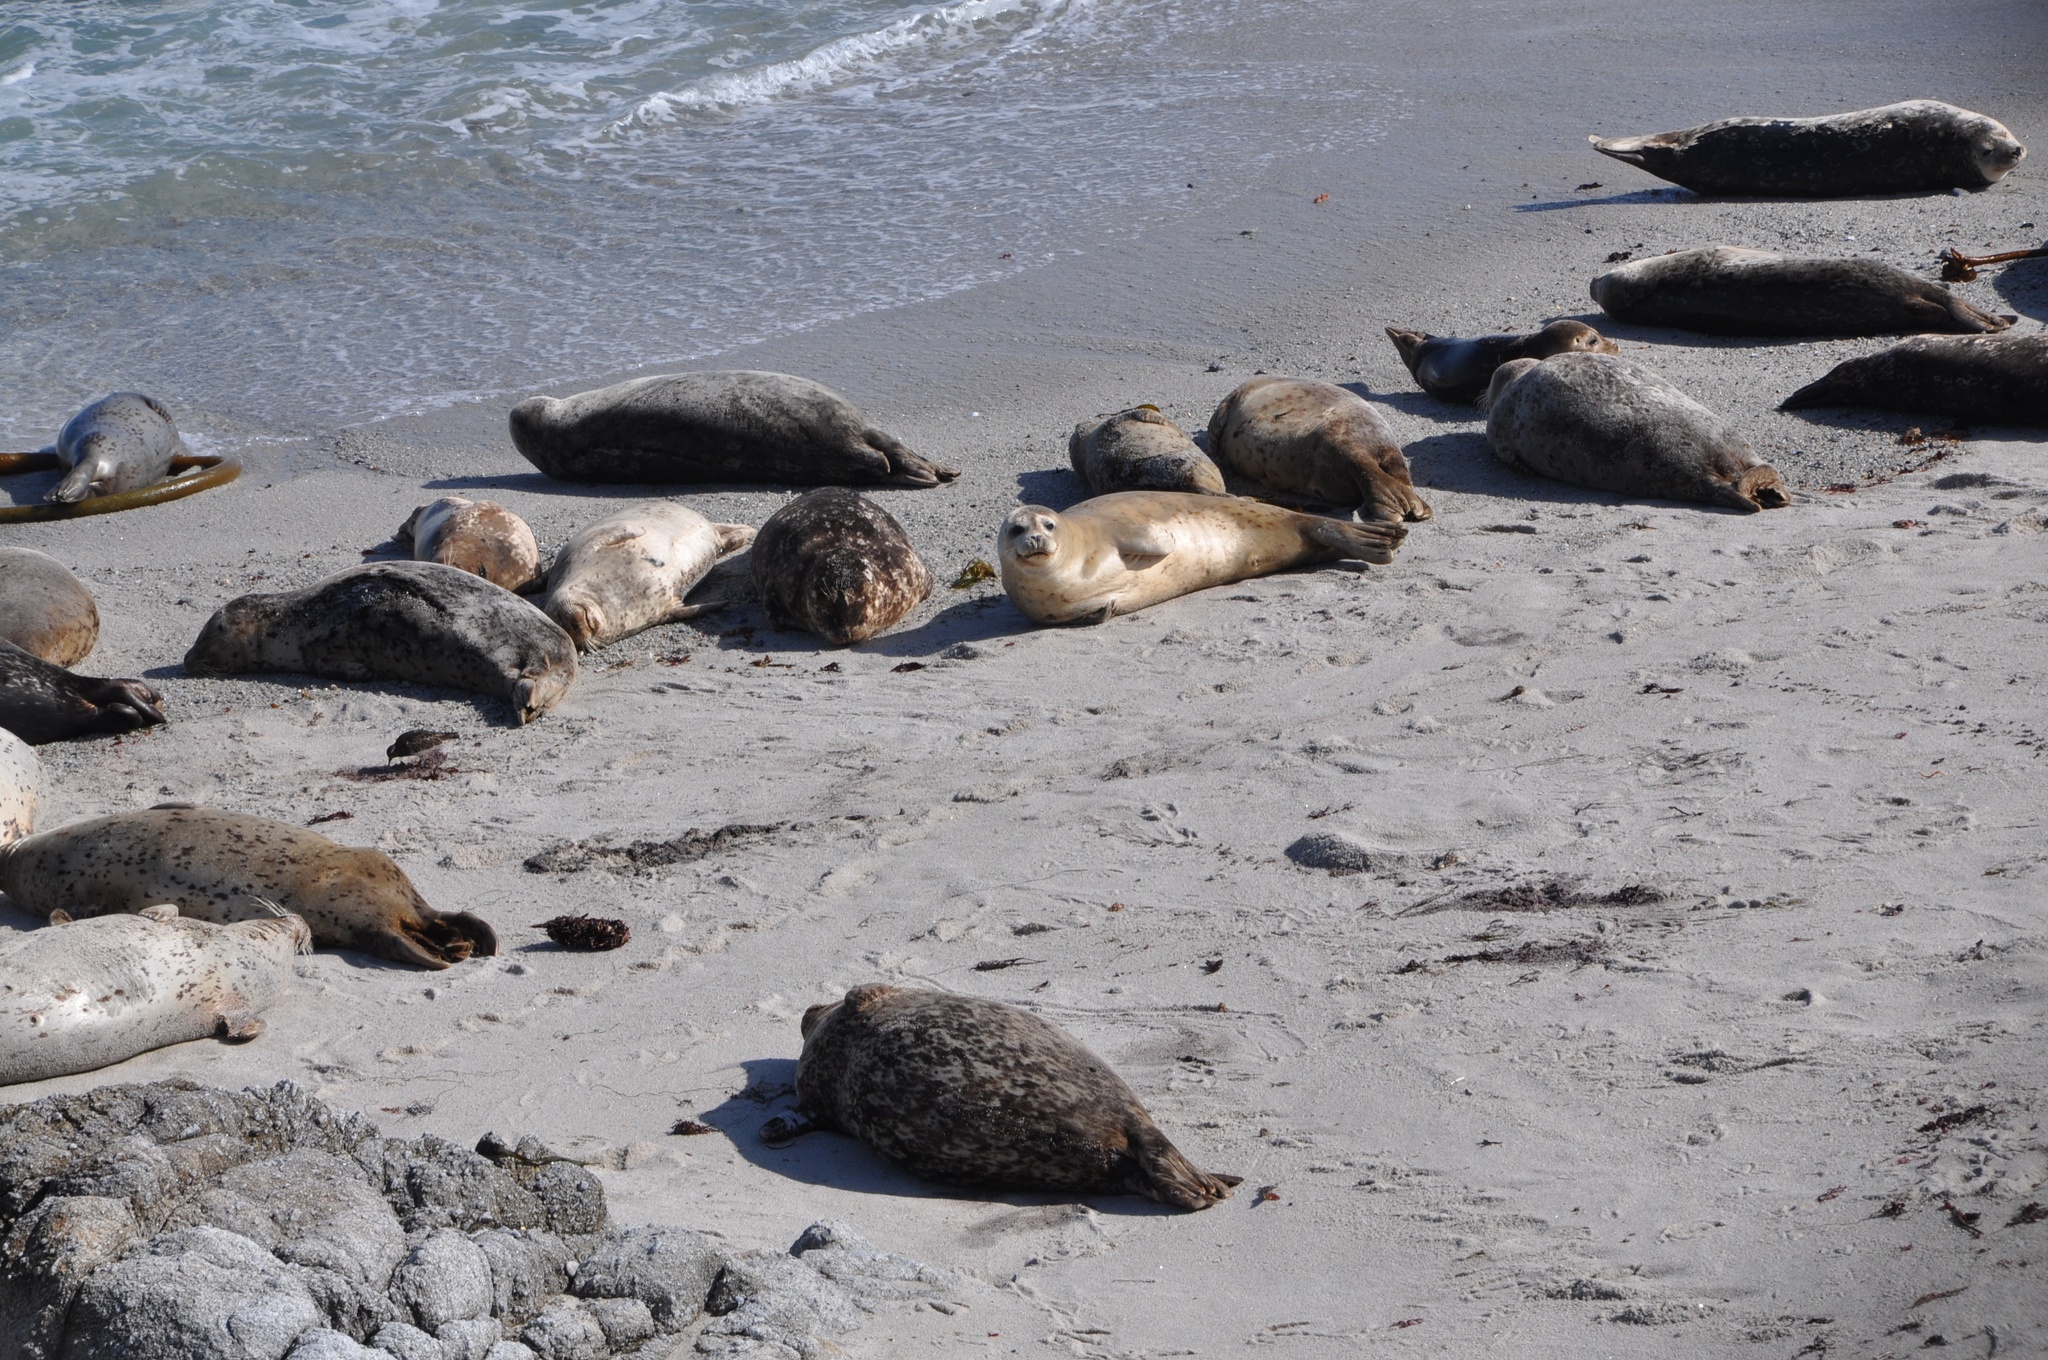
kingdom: Animalia
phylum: Chordata
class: Mammalia
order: Carnivora
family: Phocidae
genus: Phoca
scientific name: Phoca vitulina
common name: Harbor seal
